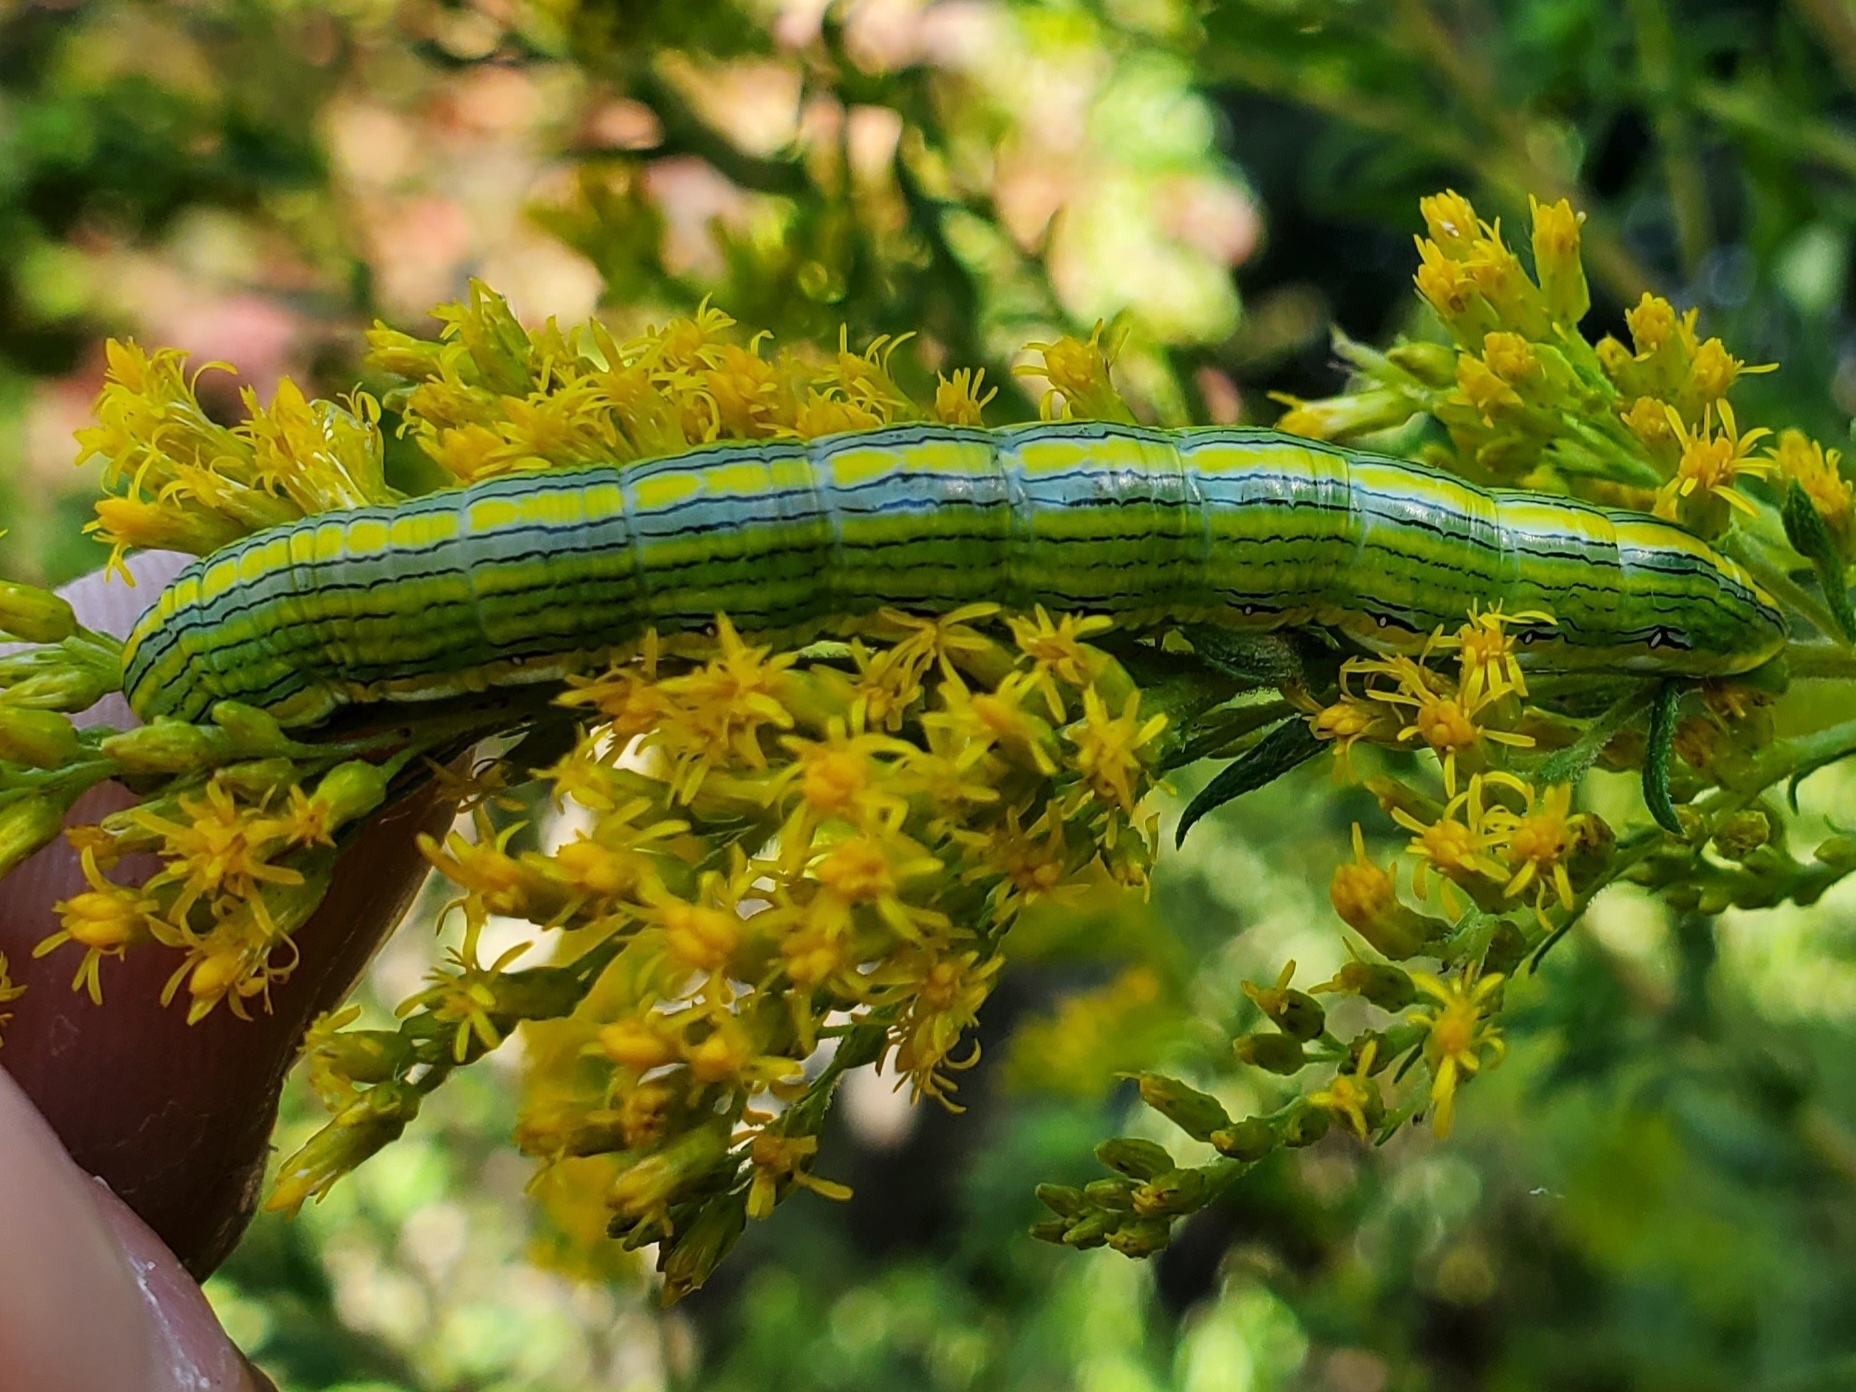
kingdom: Animalia
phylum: Arthropoda
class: Insecta
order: Lepidoptera
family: Noctuidae
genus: Cucullia
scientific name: Cucullia asteroides
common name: Asteroid moth
